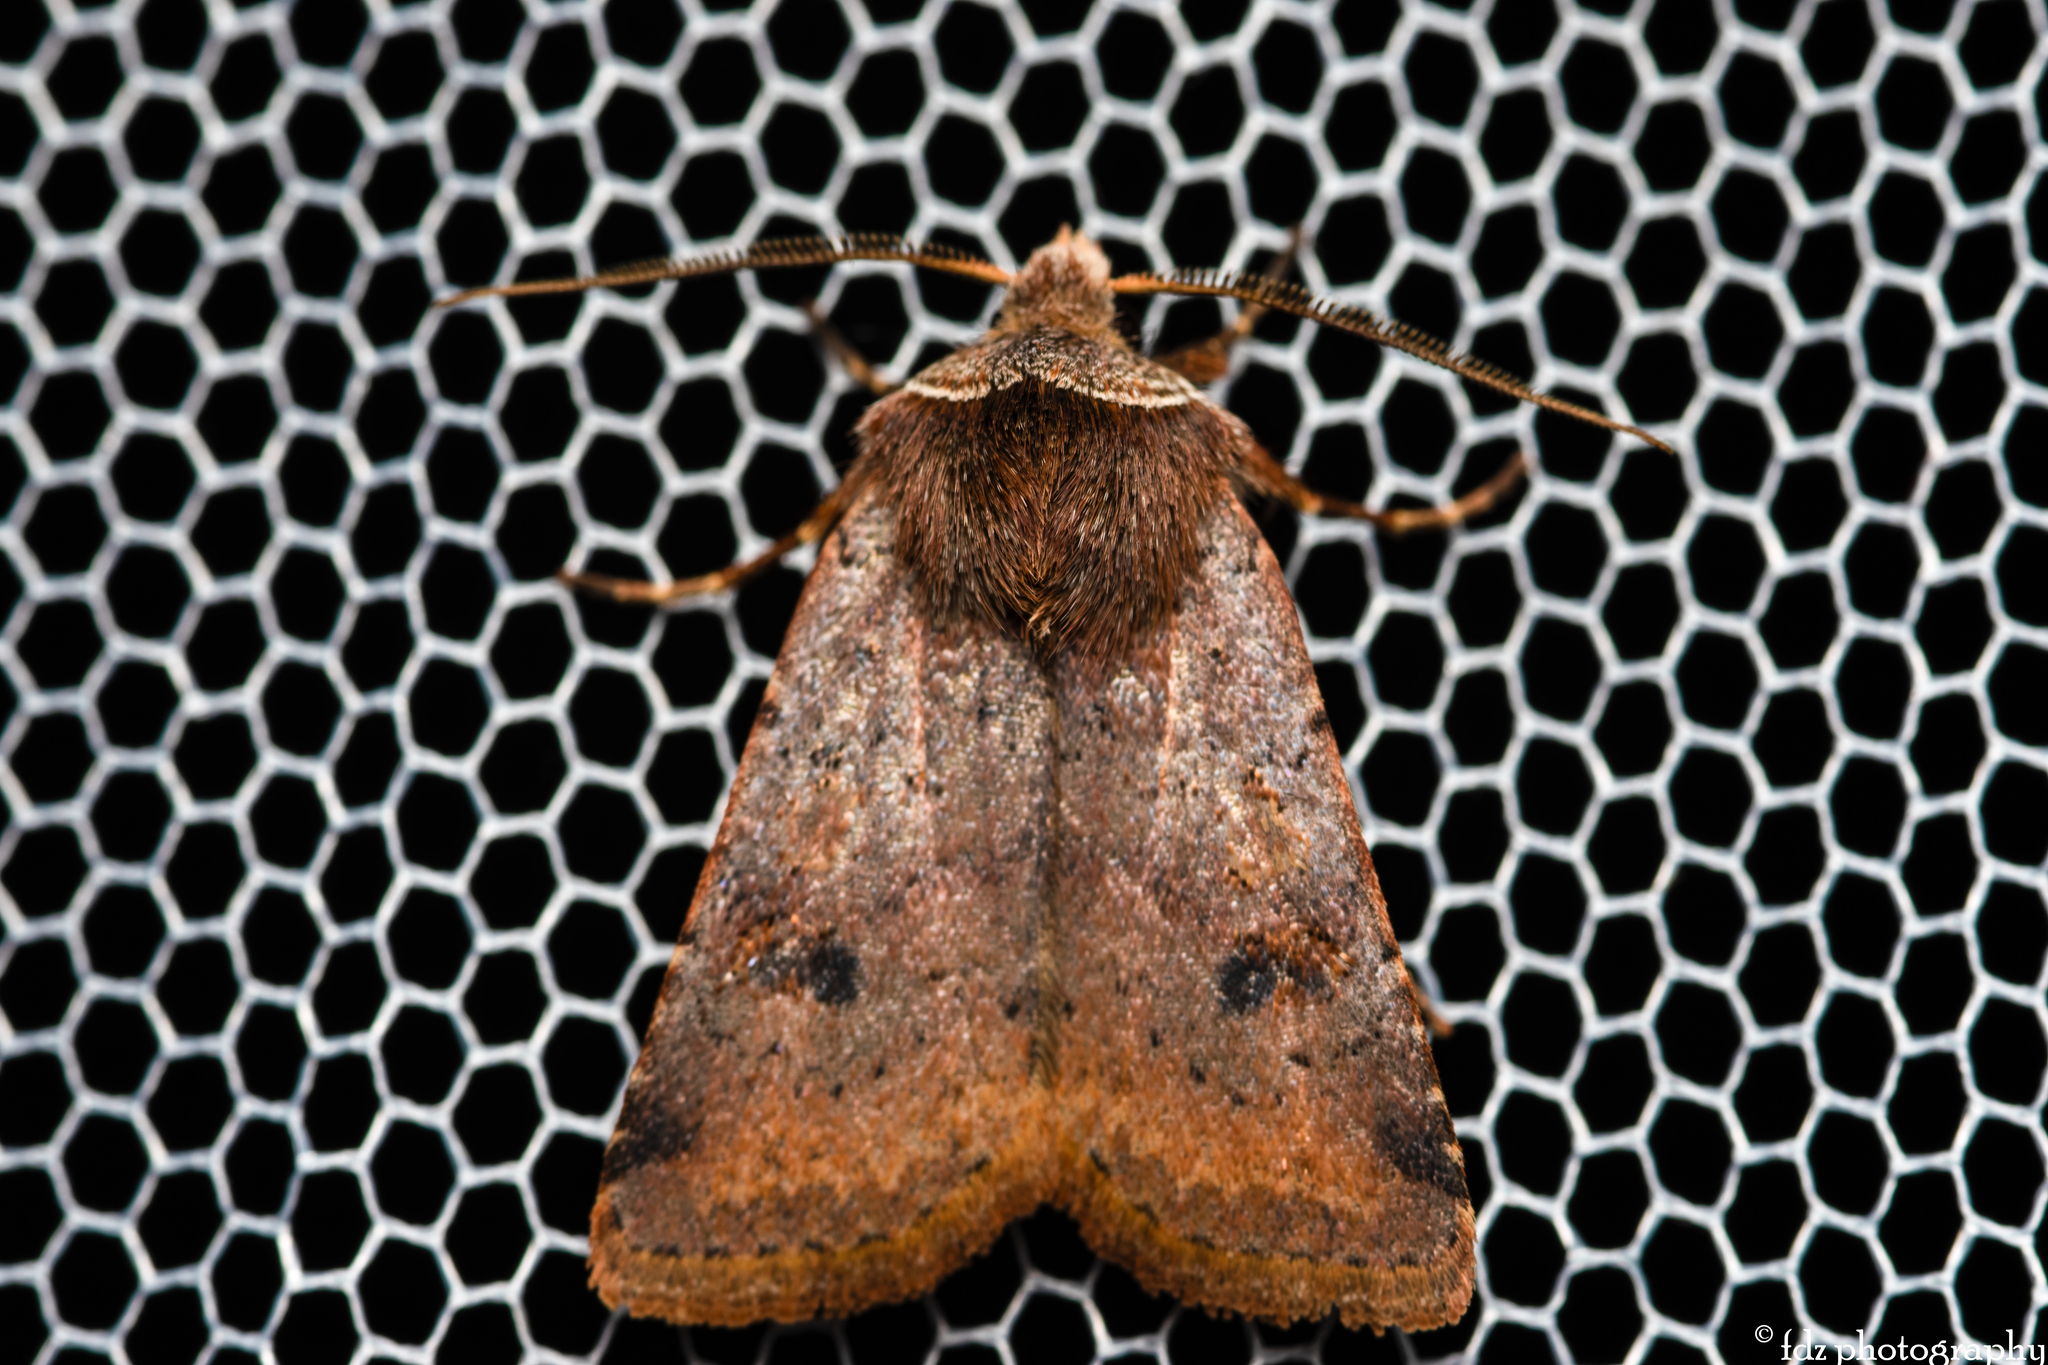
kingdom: Animalia
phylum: Arthropoda
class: Insecta
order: Lepidoptera
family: Noctuidae
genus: Cerastis
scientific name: Cerastis faceta
